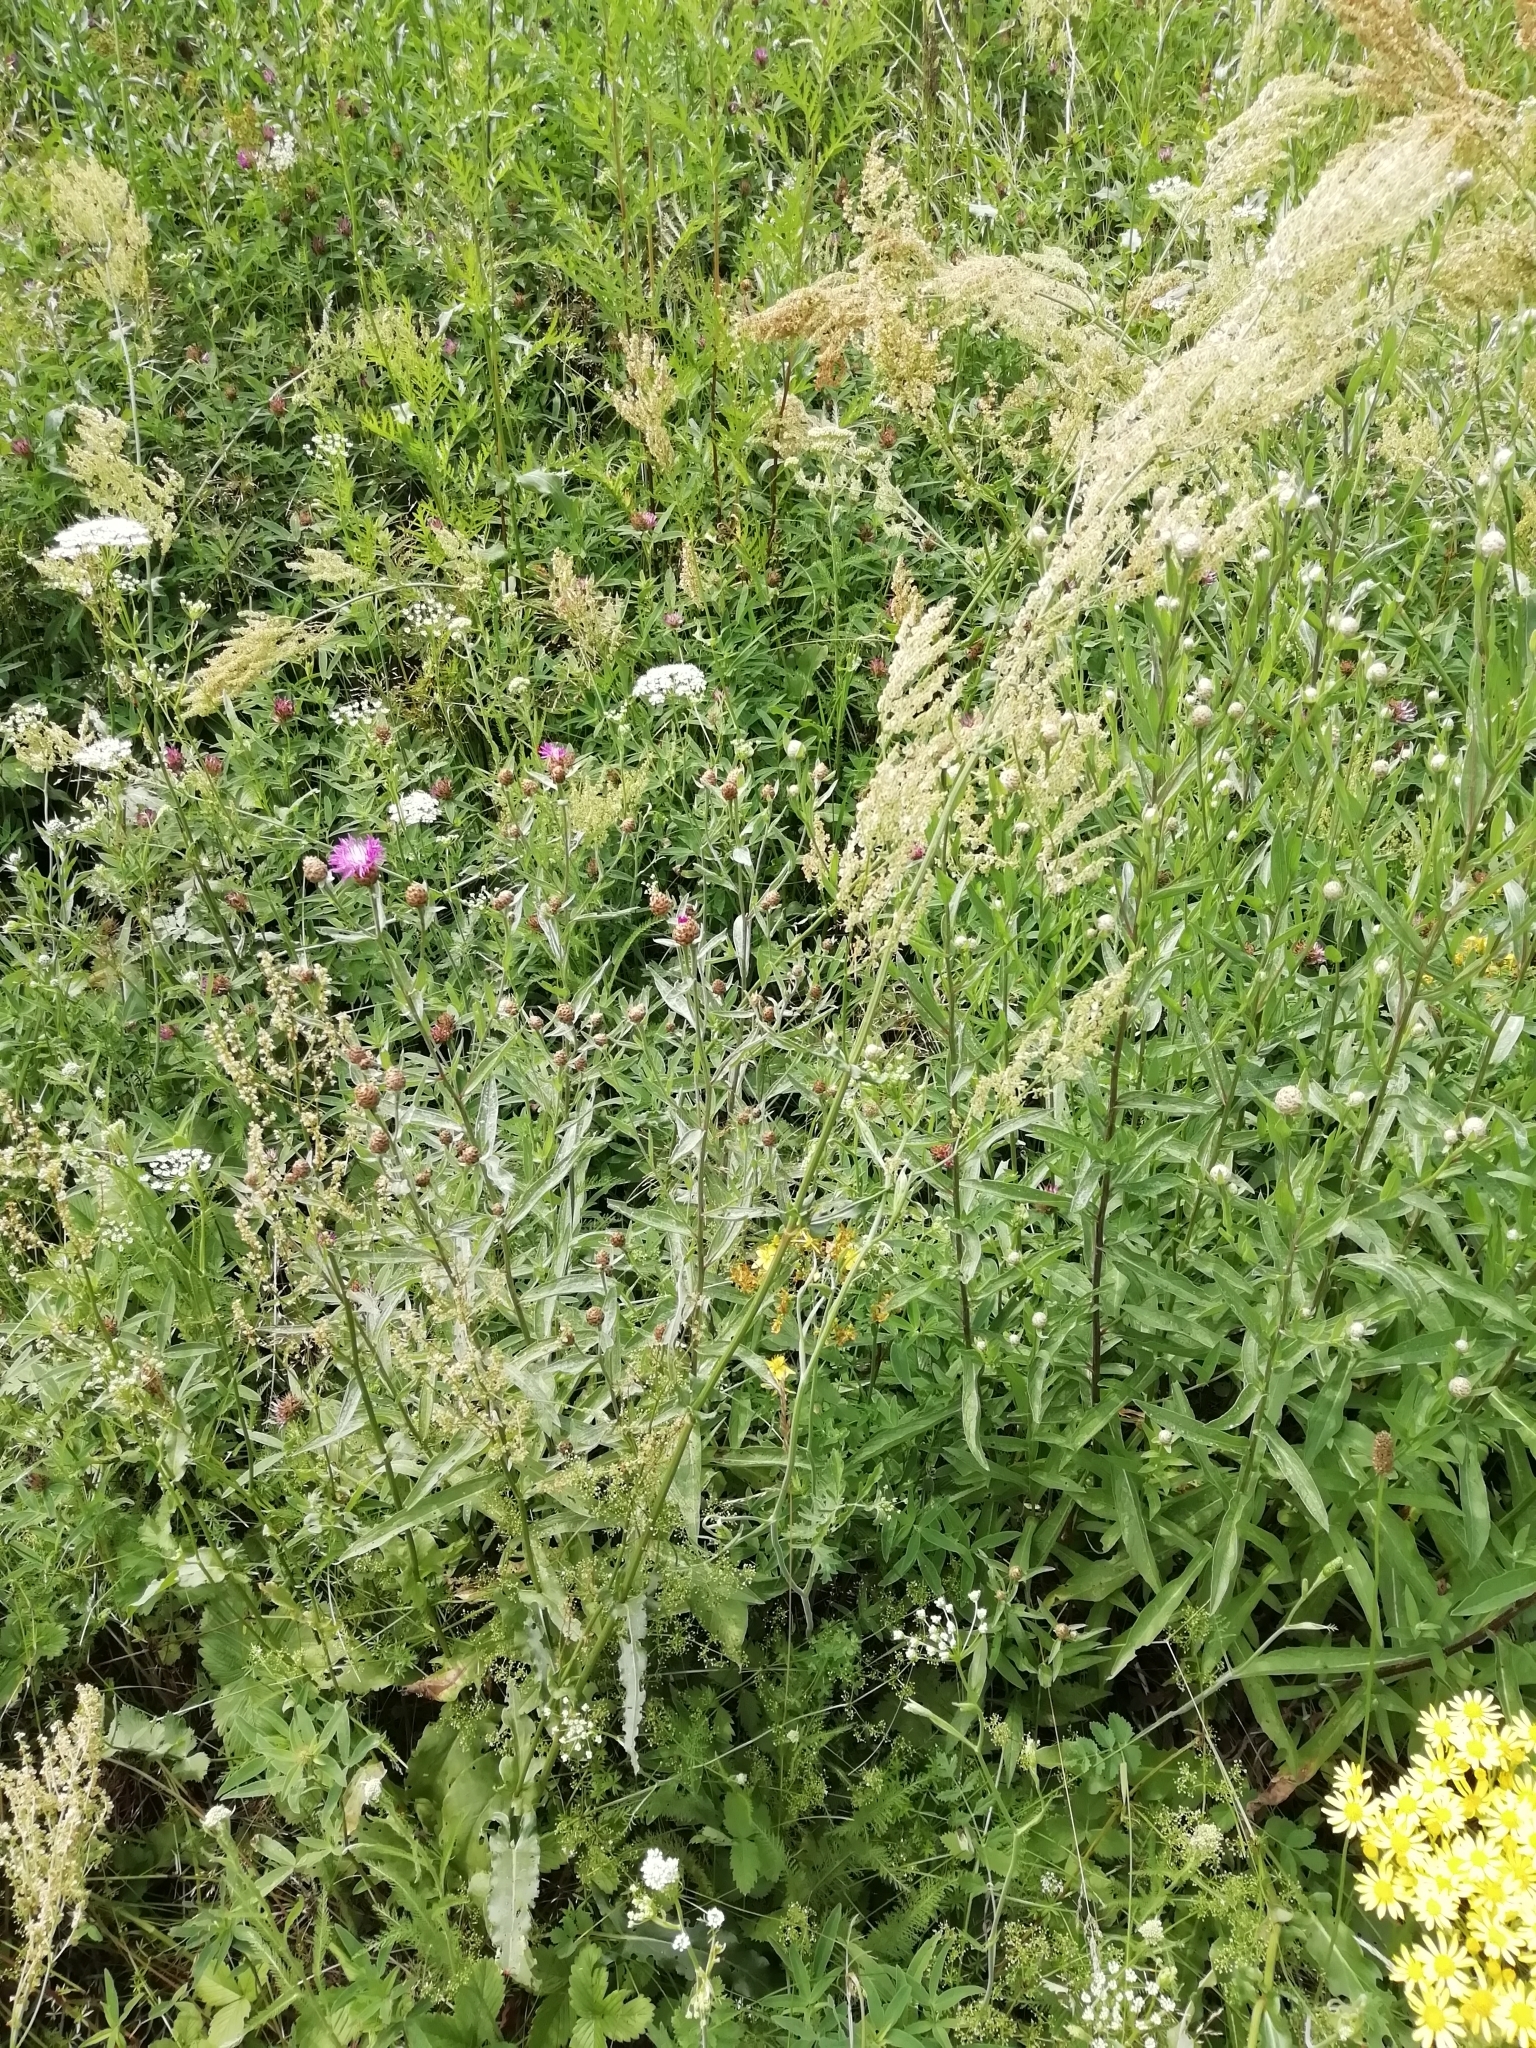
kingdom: Plantae
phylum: Tracheophyta
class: Magnoliopsida
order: Caryophyllales
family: Polygonaceae
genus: Rumex
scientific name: Rumex thyrsiflorus
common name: Garden sorrel
